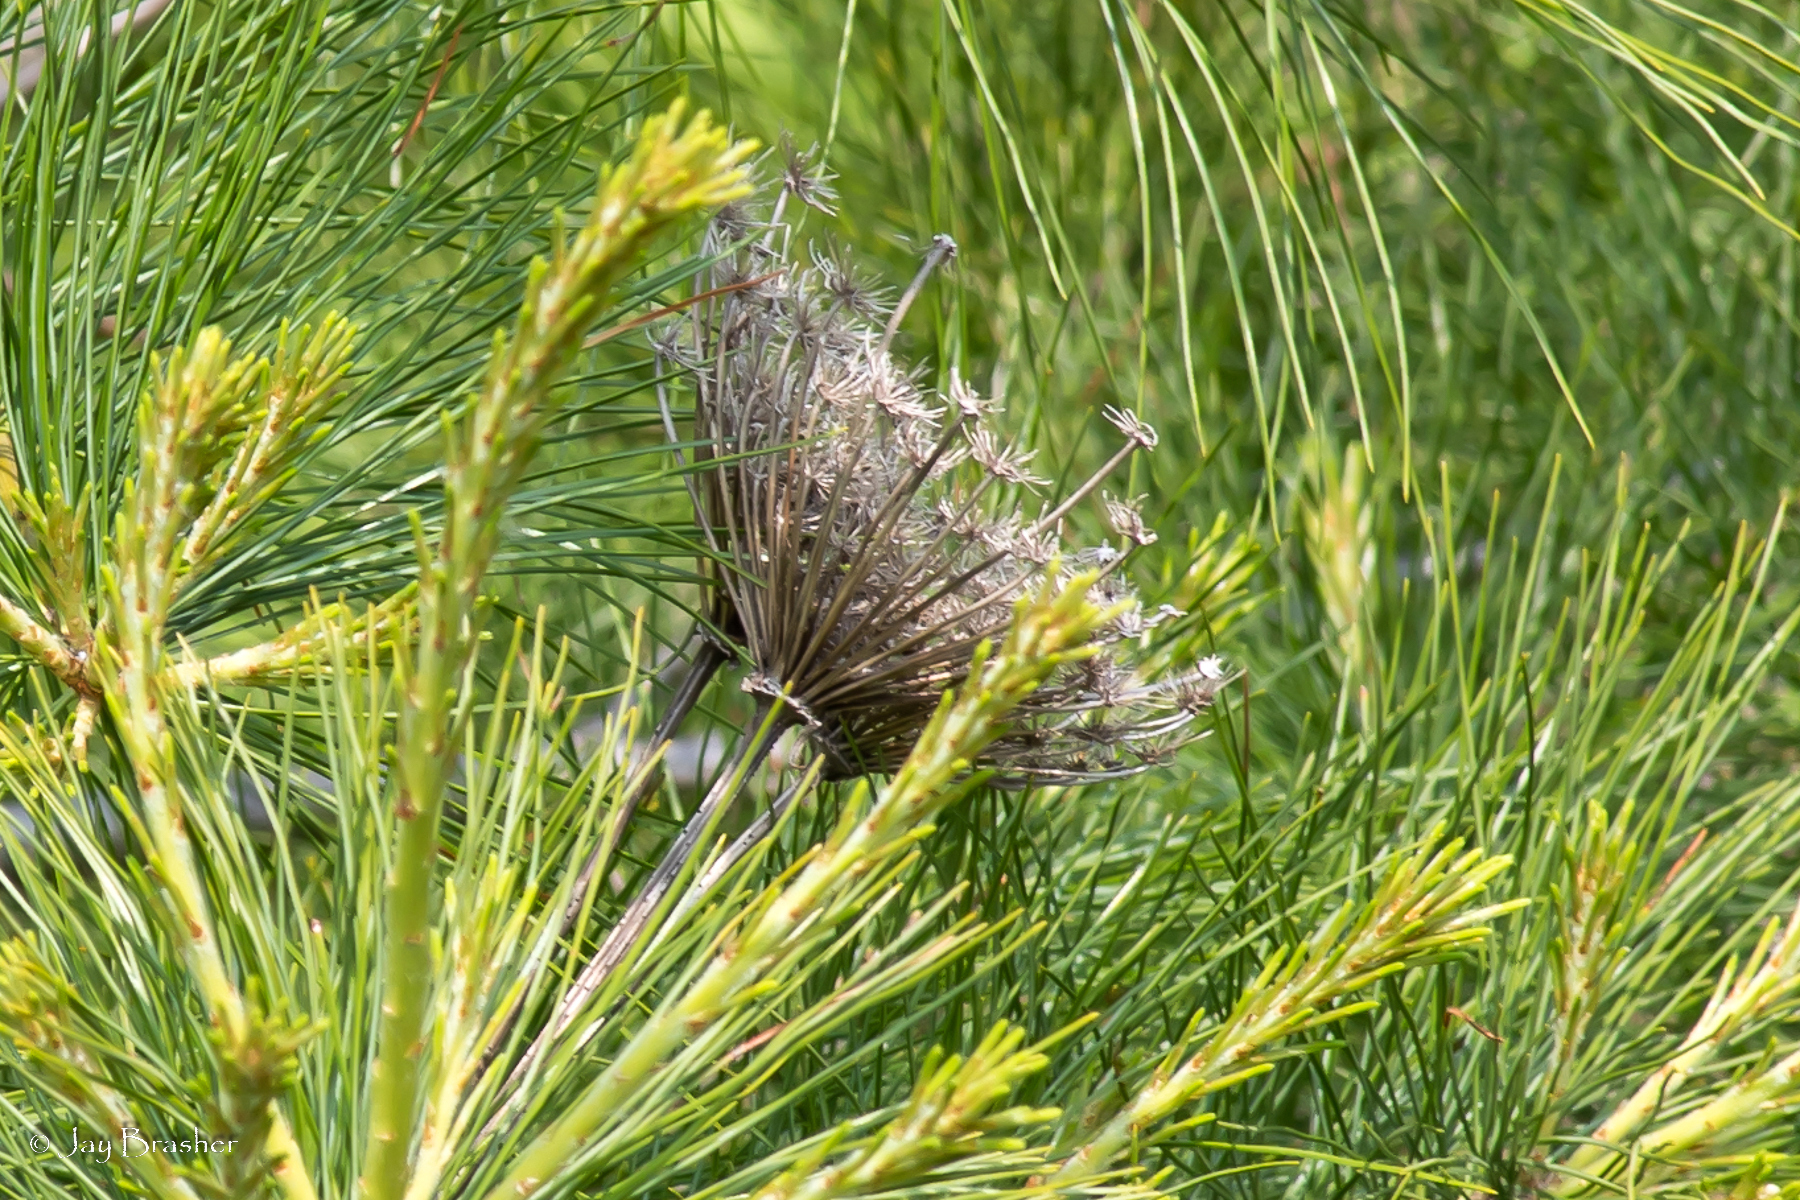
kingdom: Plantae
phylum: Tracheophyta
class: Magnoliopsida
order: Apiales
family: Apiaceae
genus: Daucus
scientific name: Daucus carota
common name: Wild carrot
